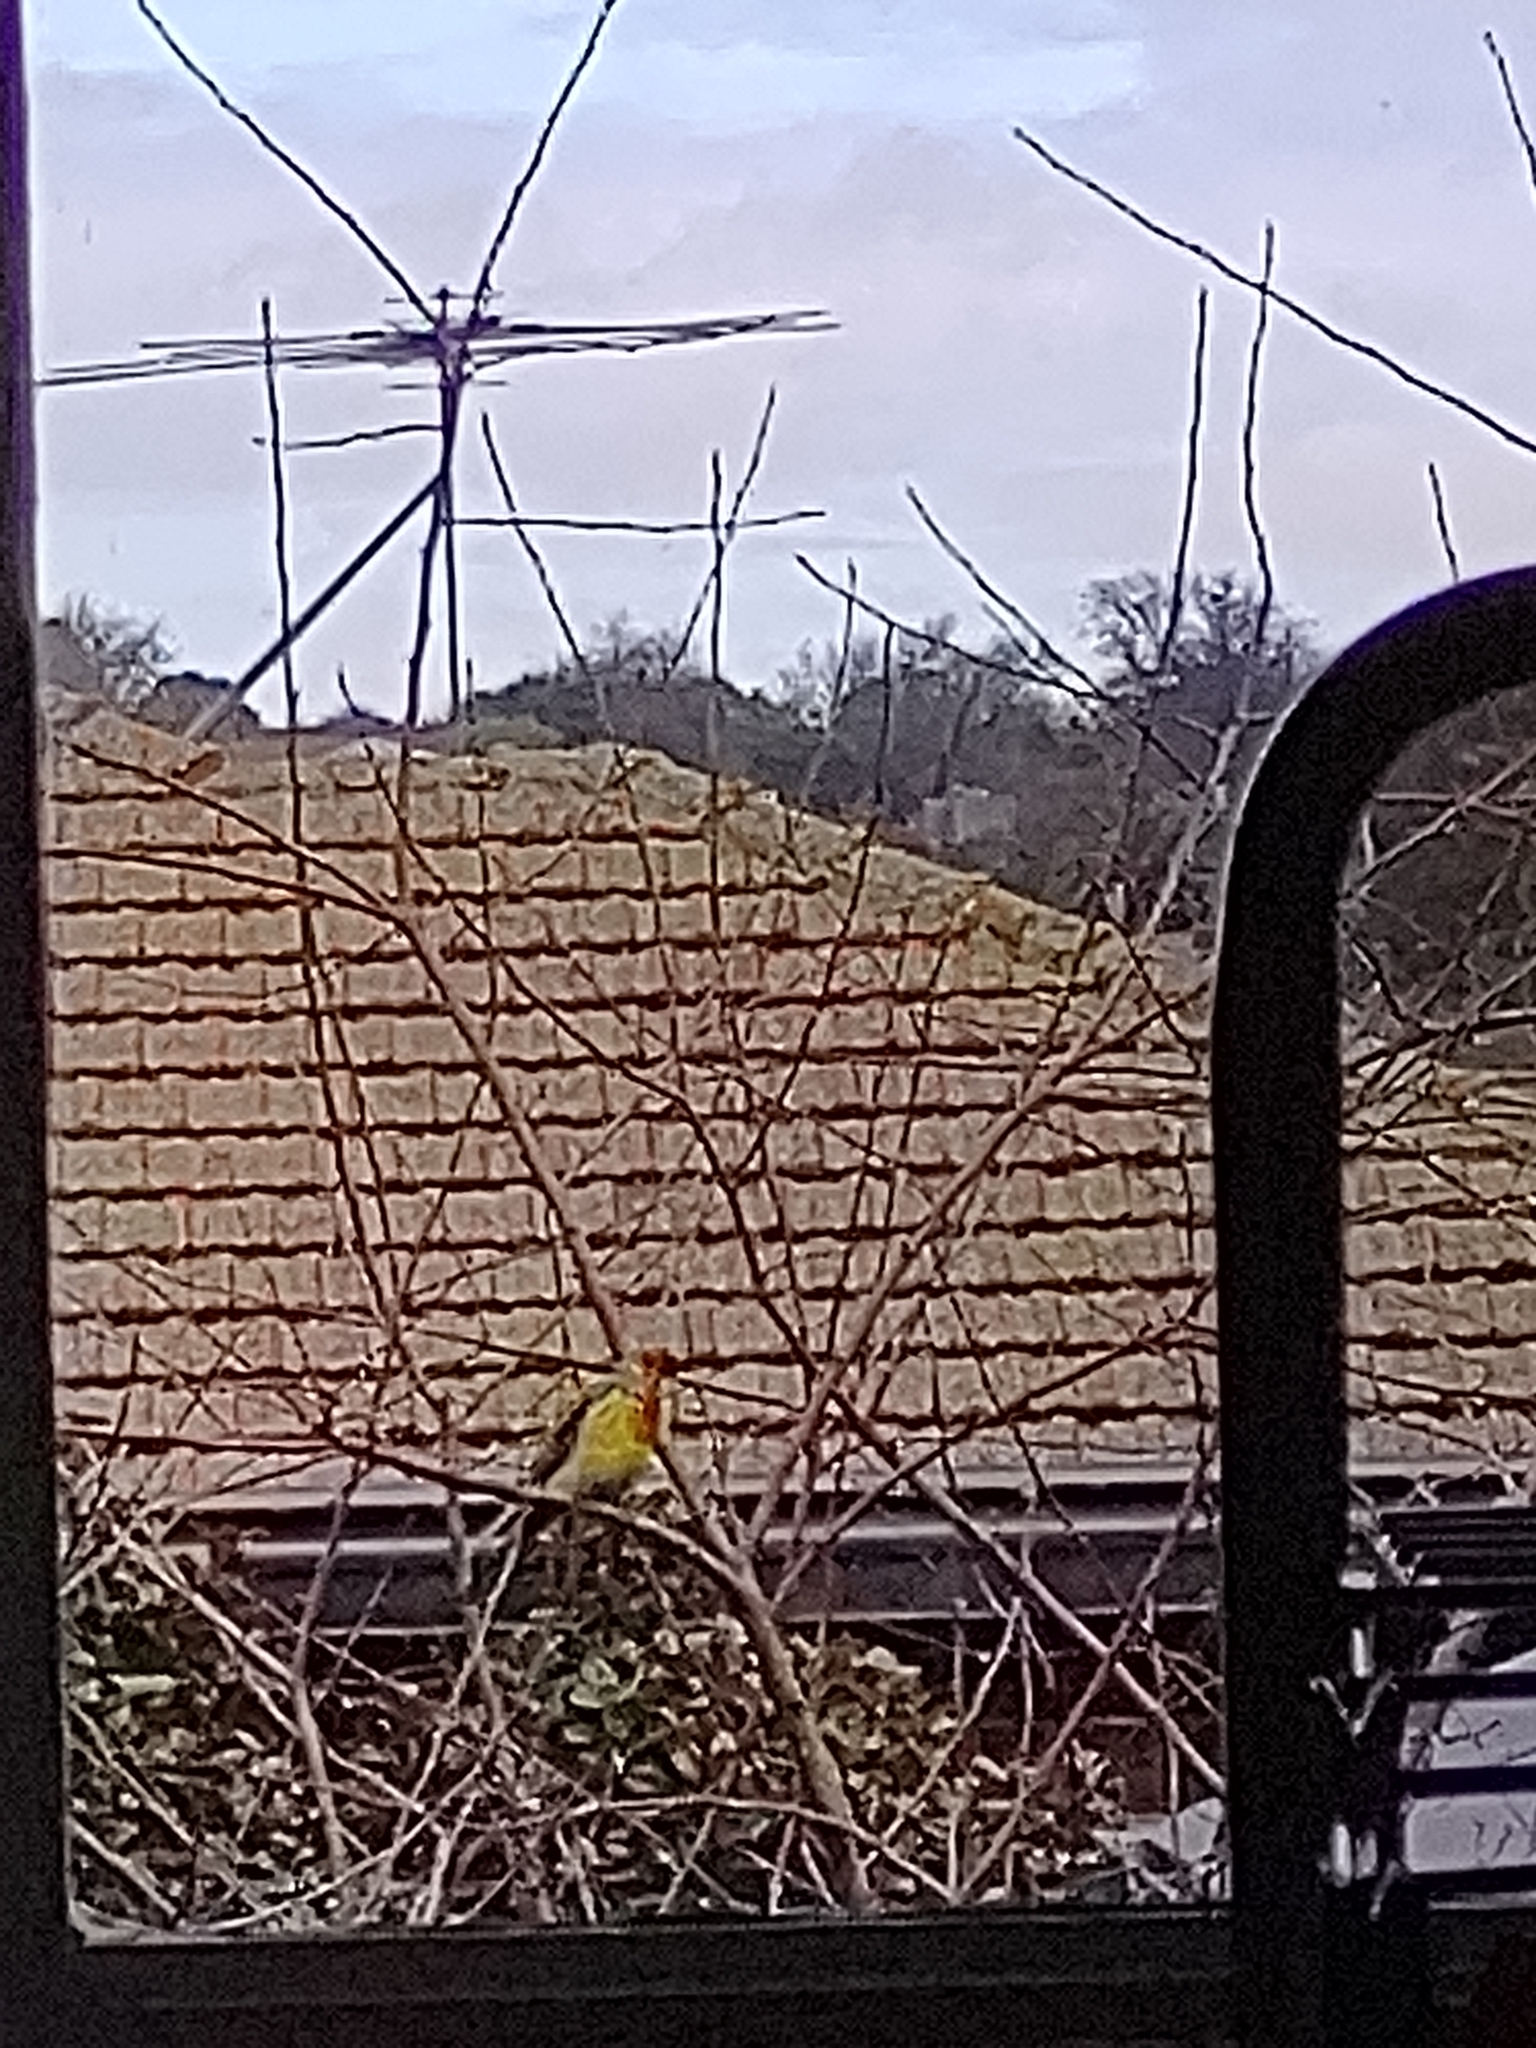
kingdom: Animalia
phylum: Chordata
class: Aves
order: Psittaciformes
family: Psittacidae
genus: Platycercus
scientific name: Platycercus eximius
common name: Eastern rosella
